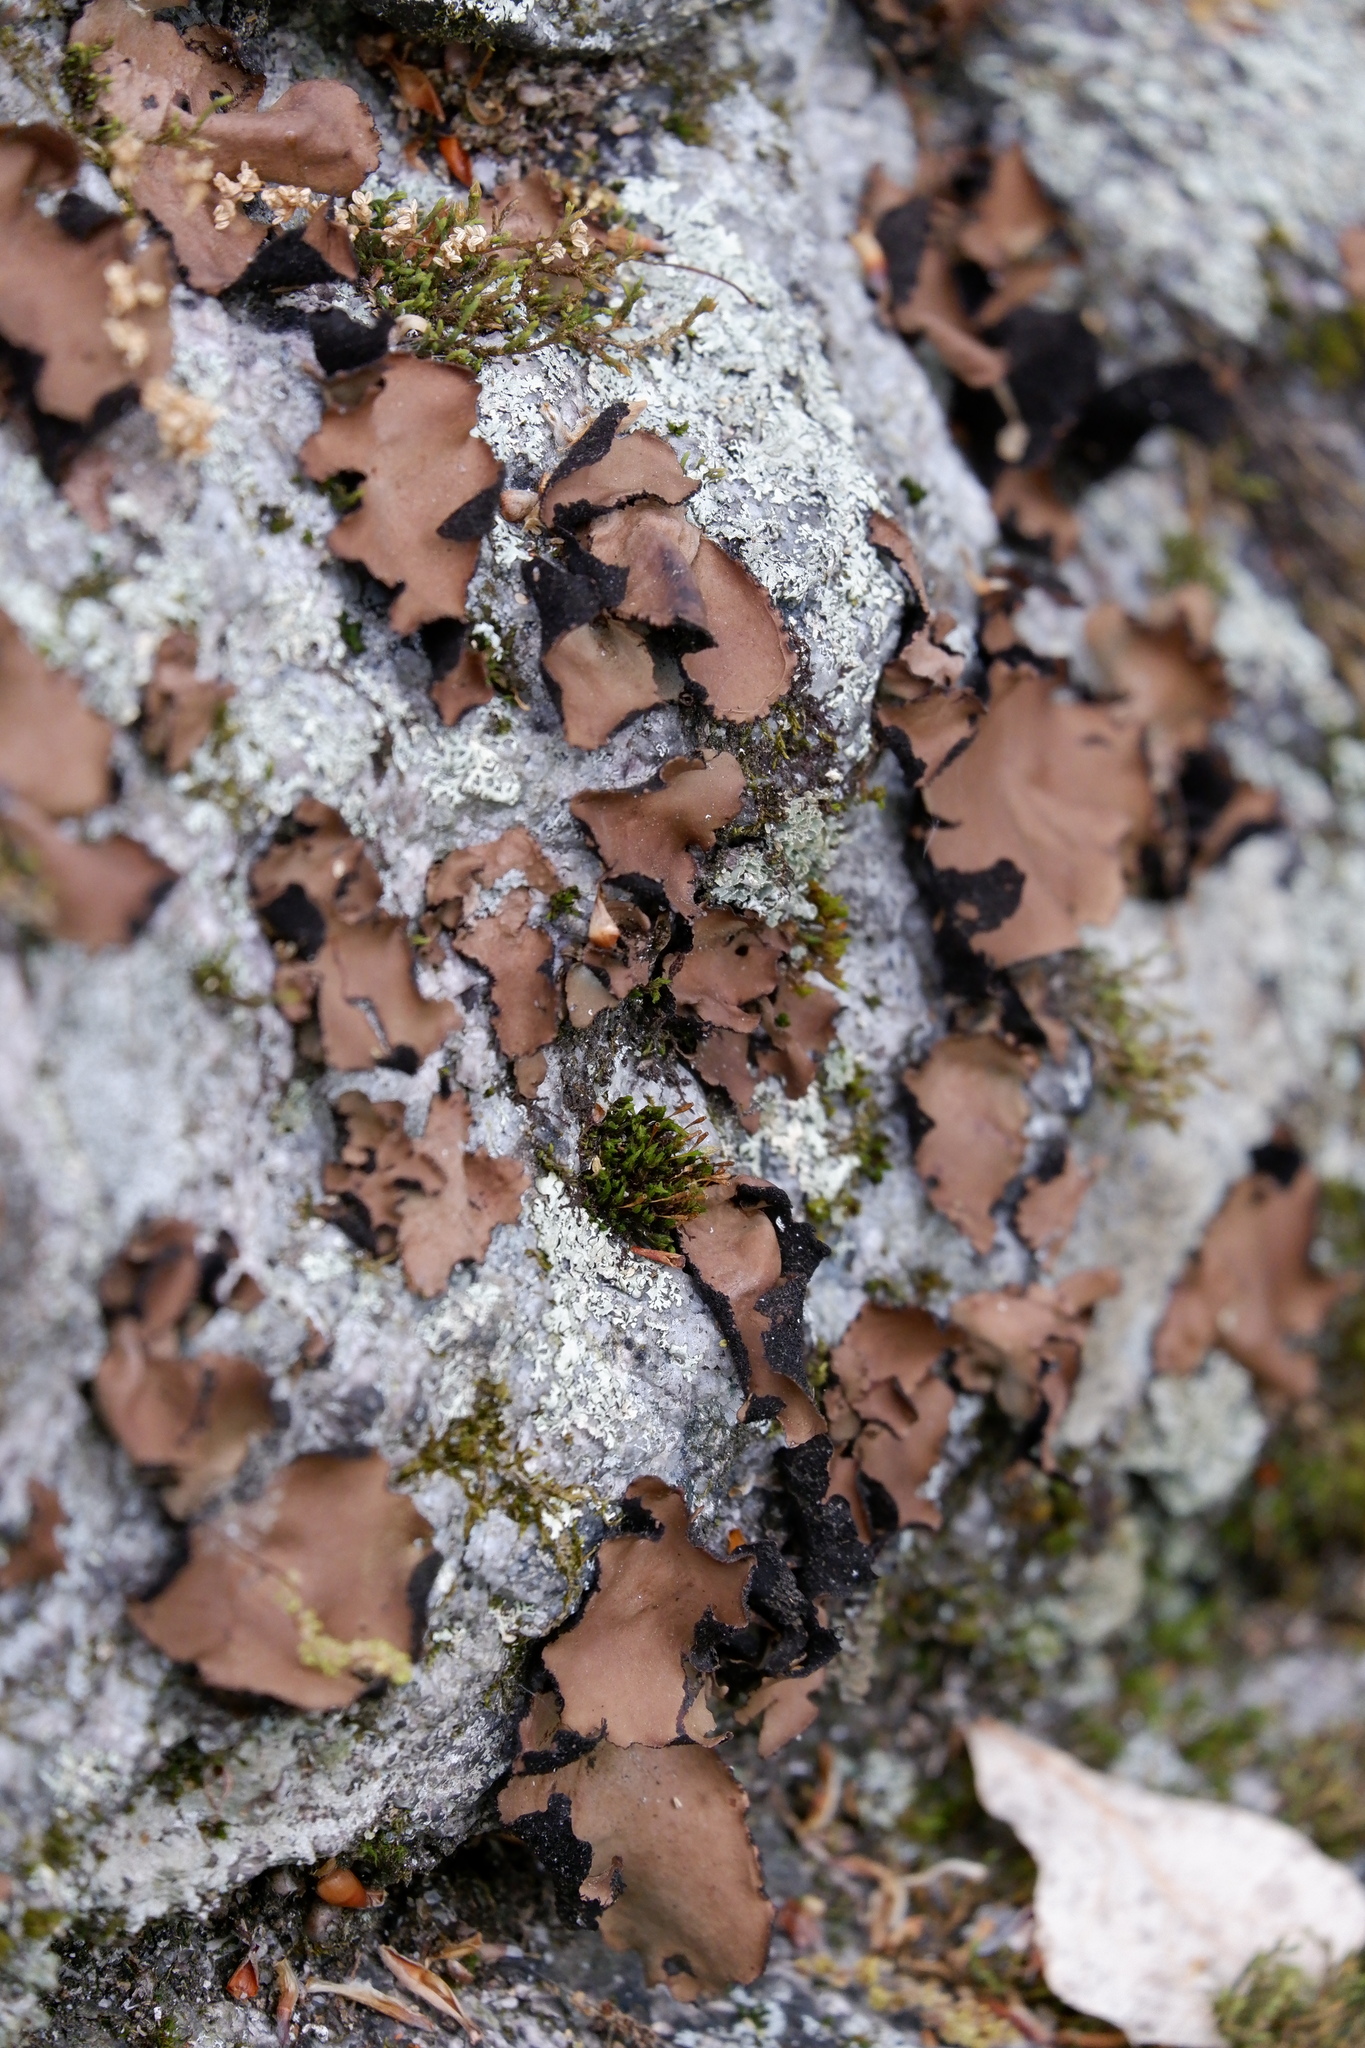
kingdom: Fungi
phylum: Ascomycota
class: Lecanoromycetes
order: Umbilicariales
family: Umbilicariaceae
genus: Umbilicaria
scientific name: Umbilicaria mammulata
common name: Smooth rock tripe
